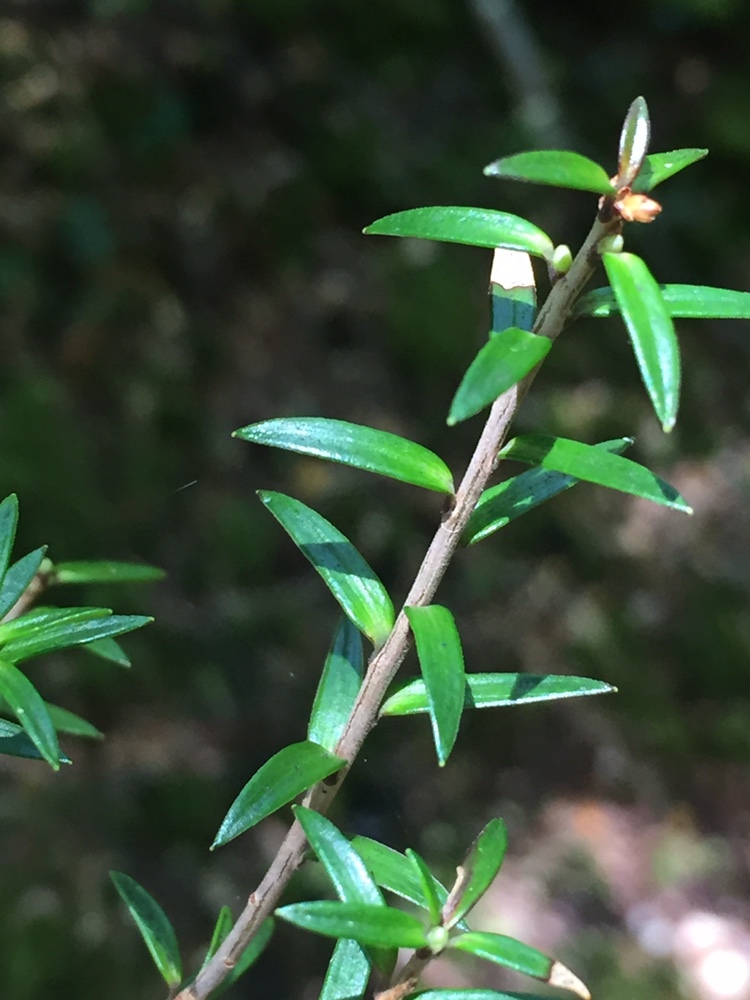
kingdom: Plantae
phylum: Tracheophyta
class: Magnoliopsida
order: Ericales
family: Ericaceae
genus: Archeria
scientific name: Archeria traversii
